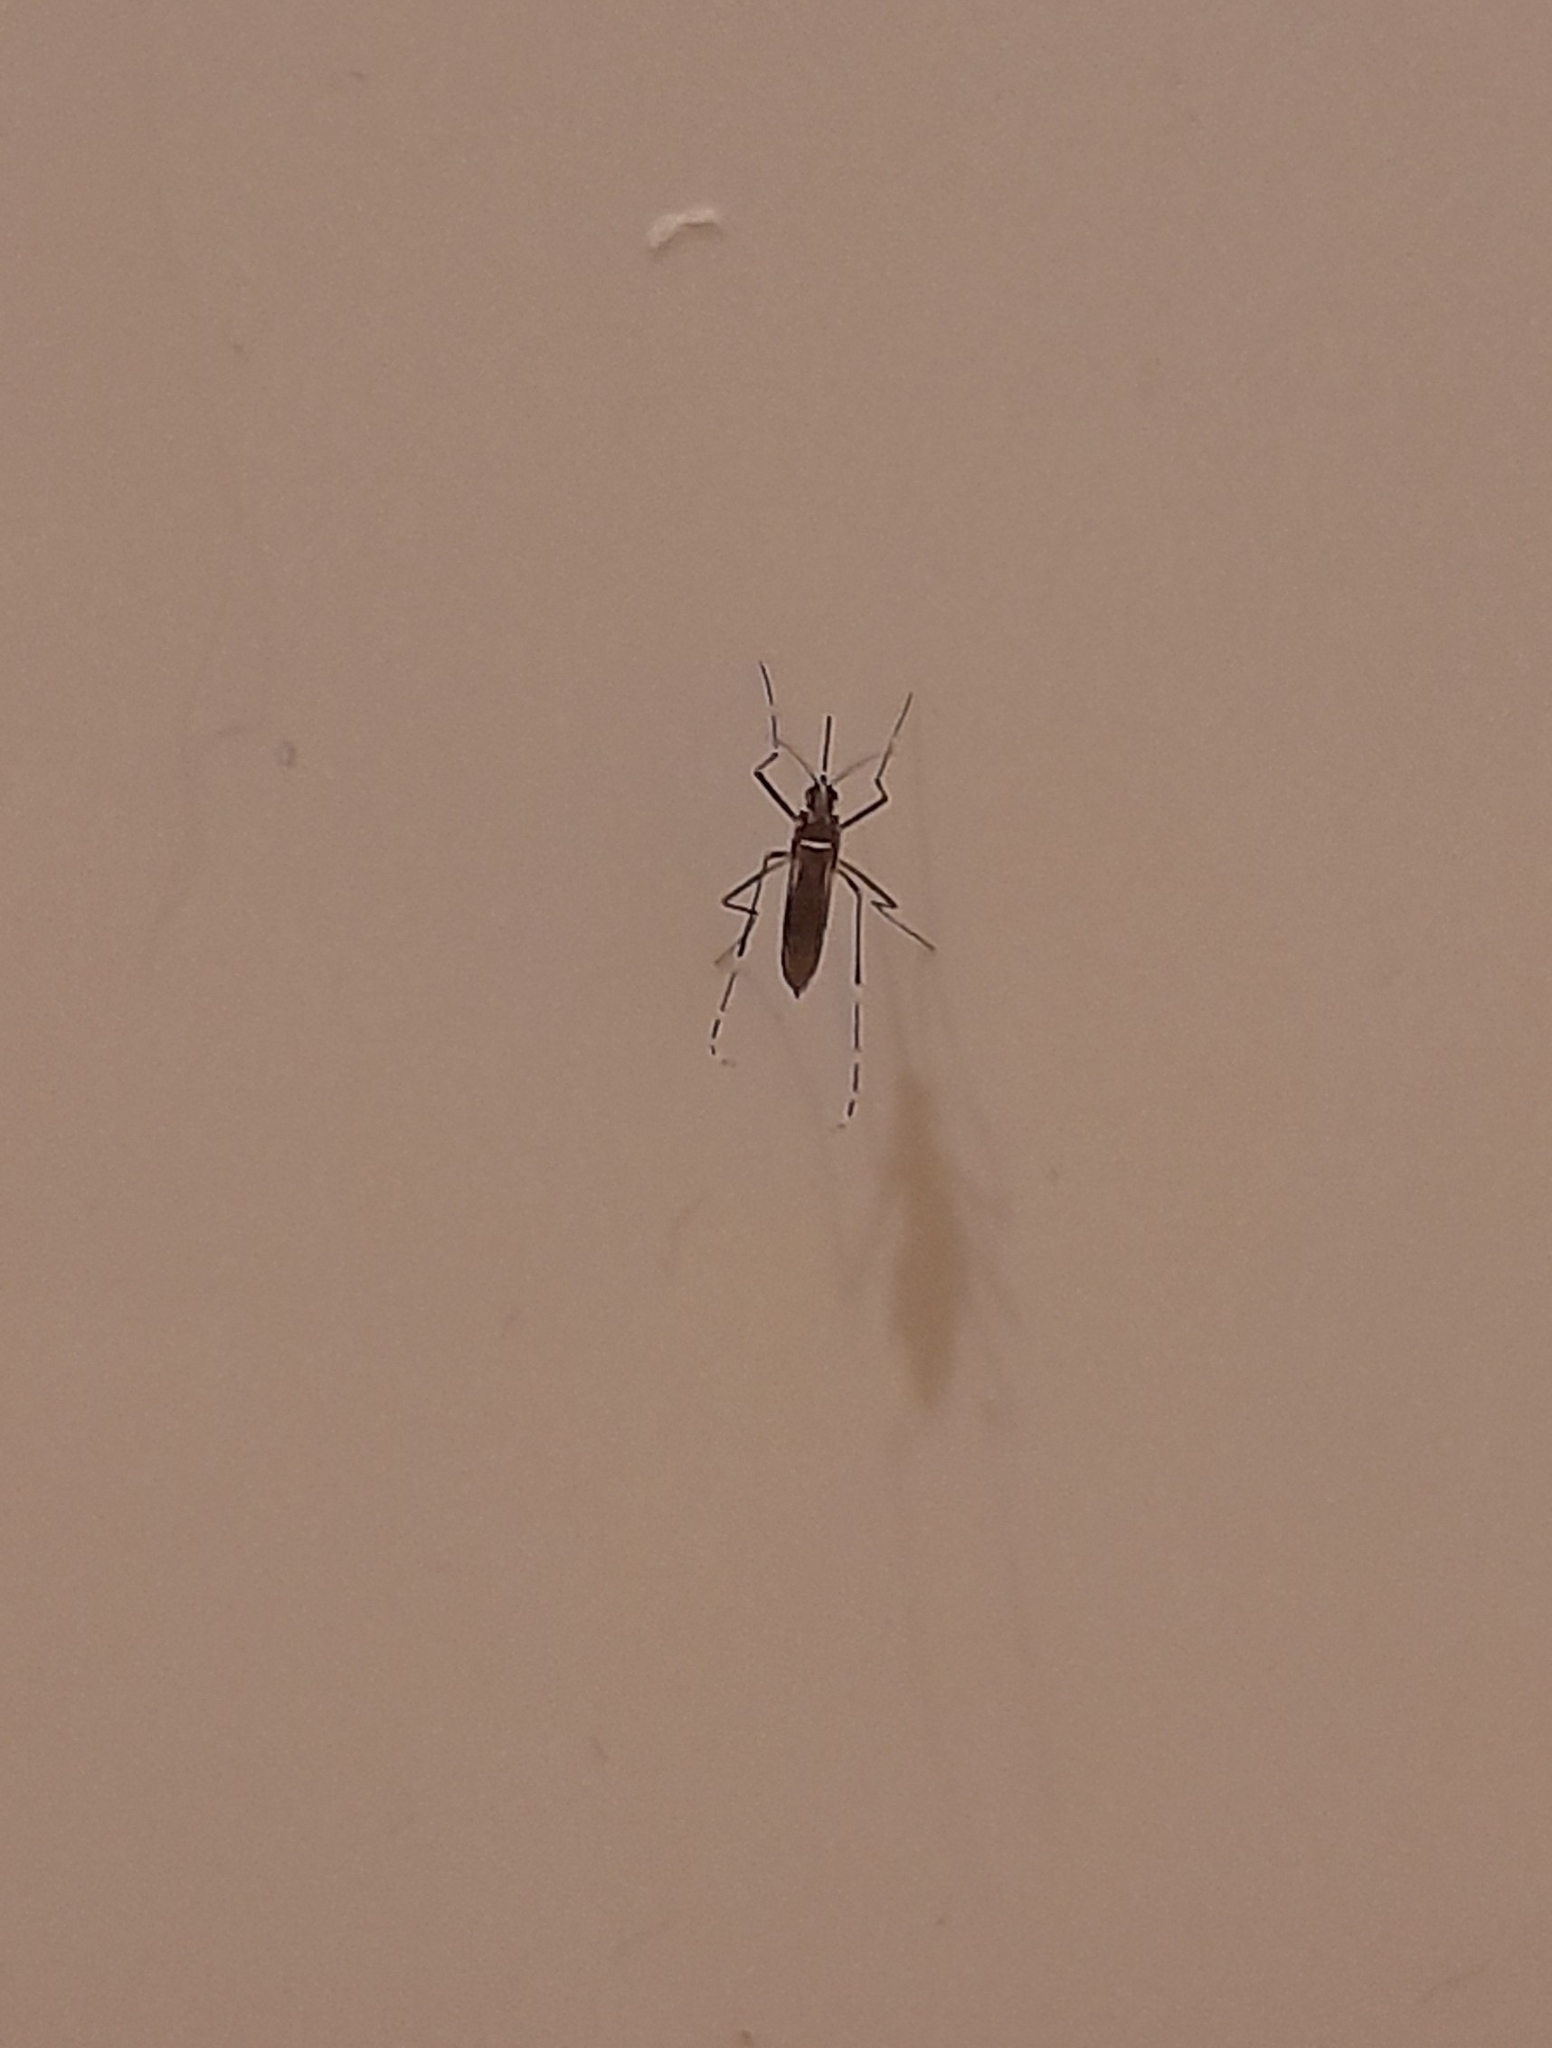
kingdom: Animalia
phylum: Arthropoda
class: Insecta
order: Diptera
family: Culicidae
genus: Aedes
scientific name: Aedes aegypti
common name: Yellow fever mosquito
